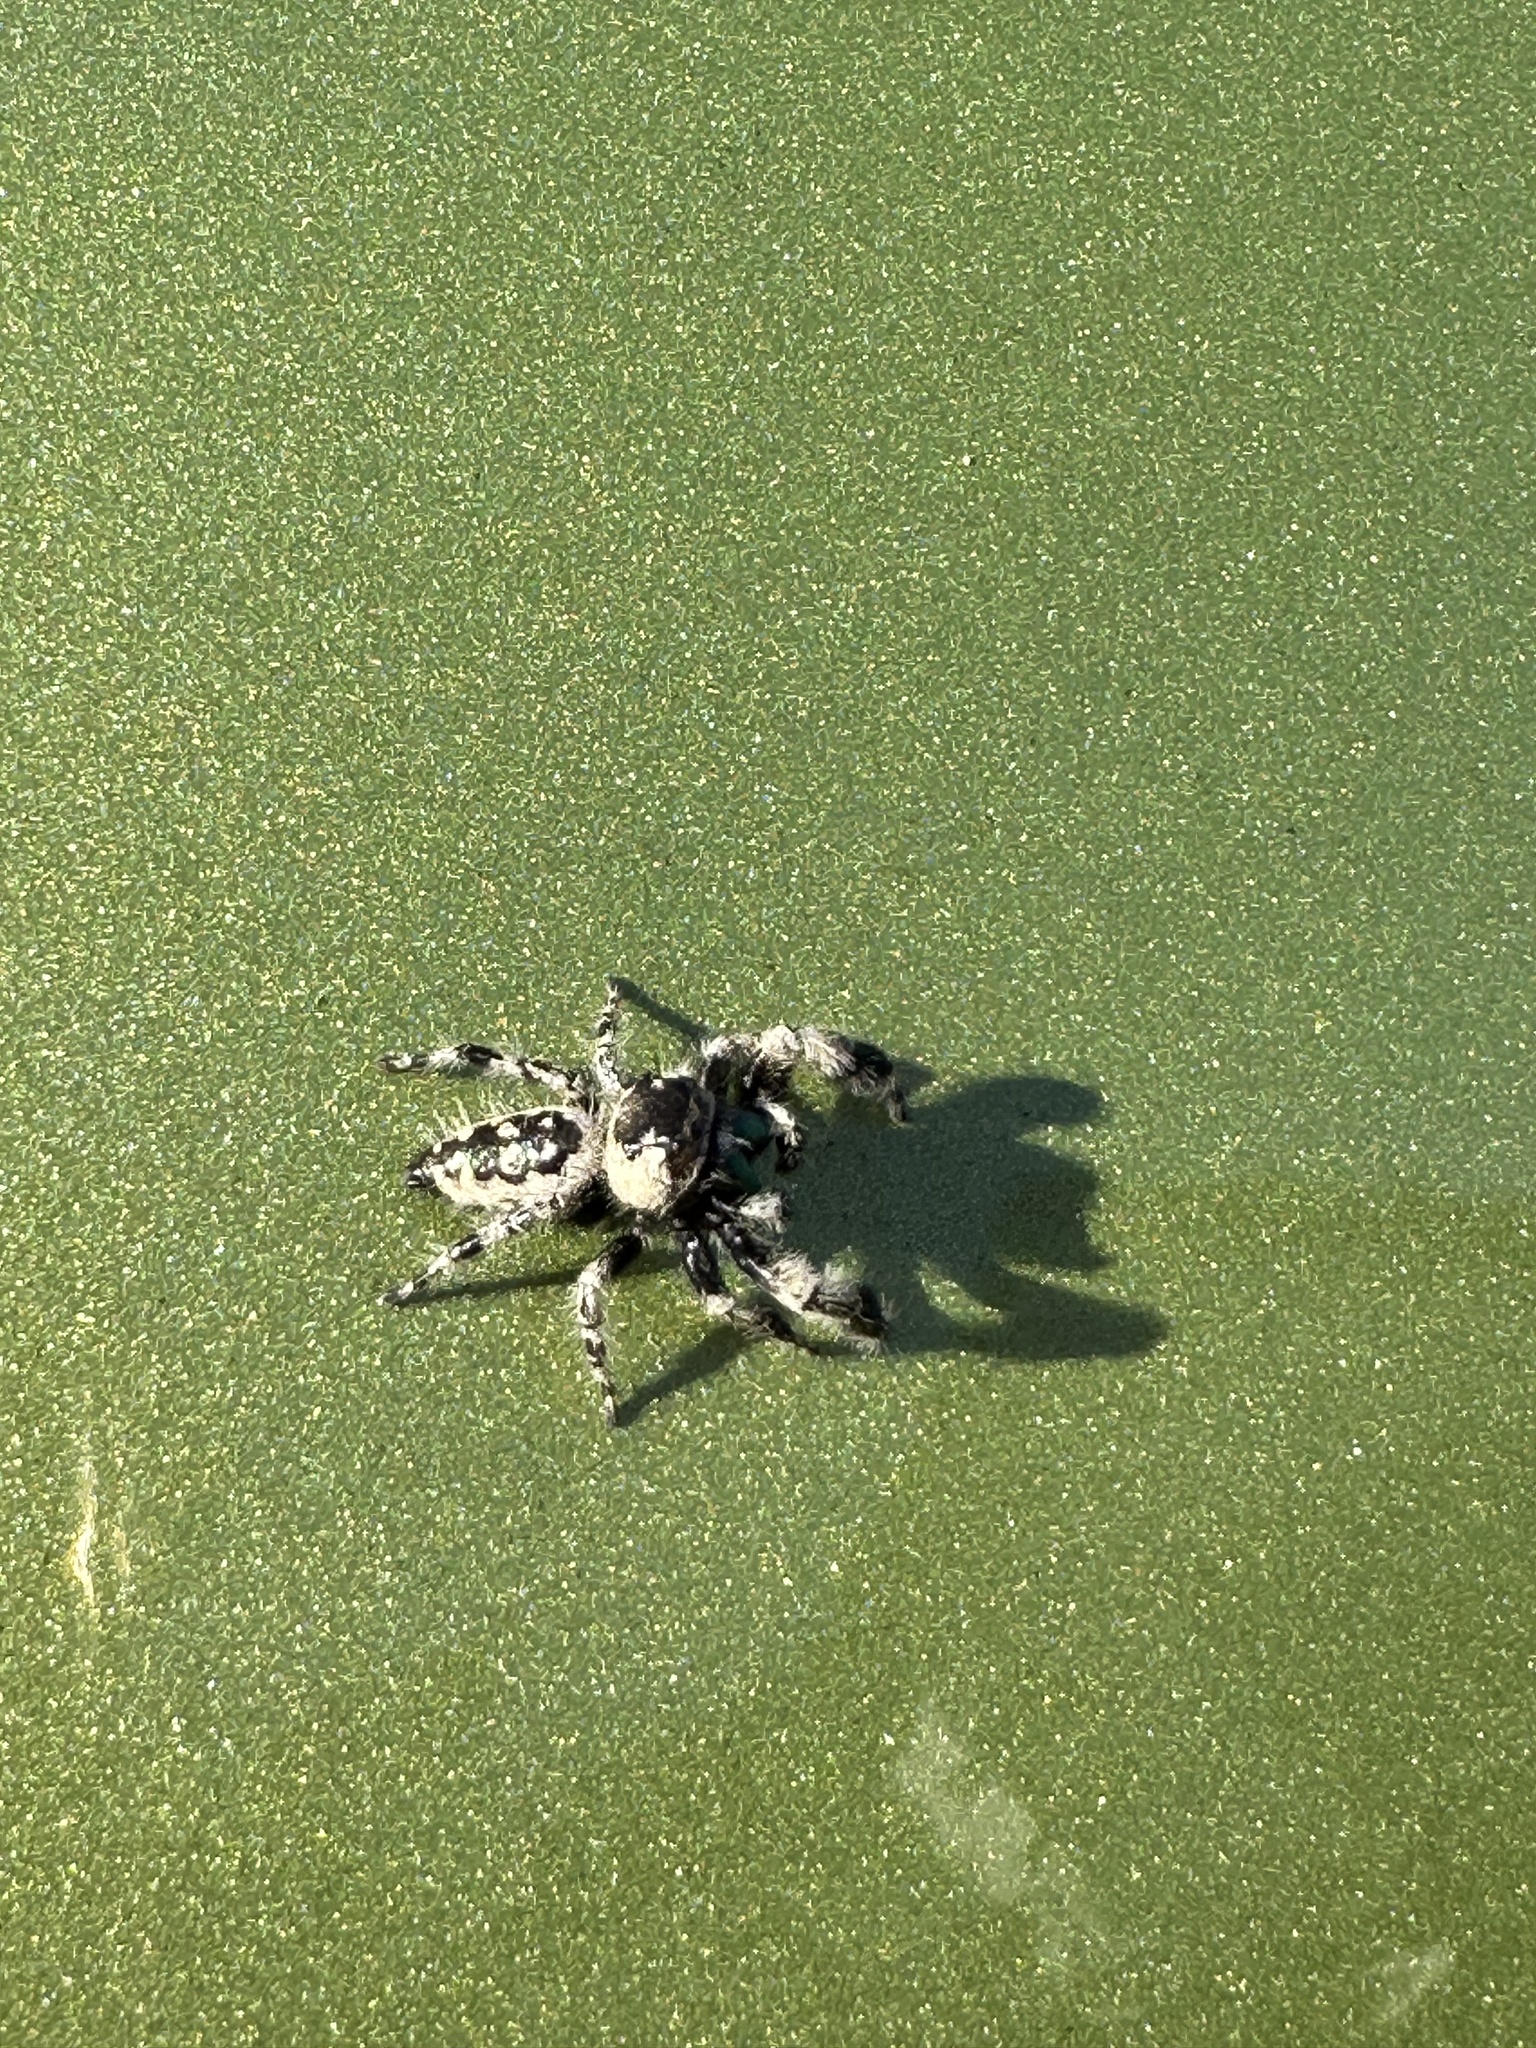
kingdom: Animalia
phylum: Arthropoda
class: Arachnida
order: Araneae
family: Salticidae
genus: Phidippus
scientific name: Phidippus otiosus
